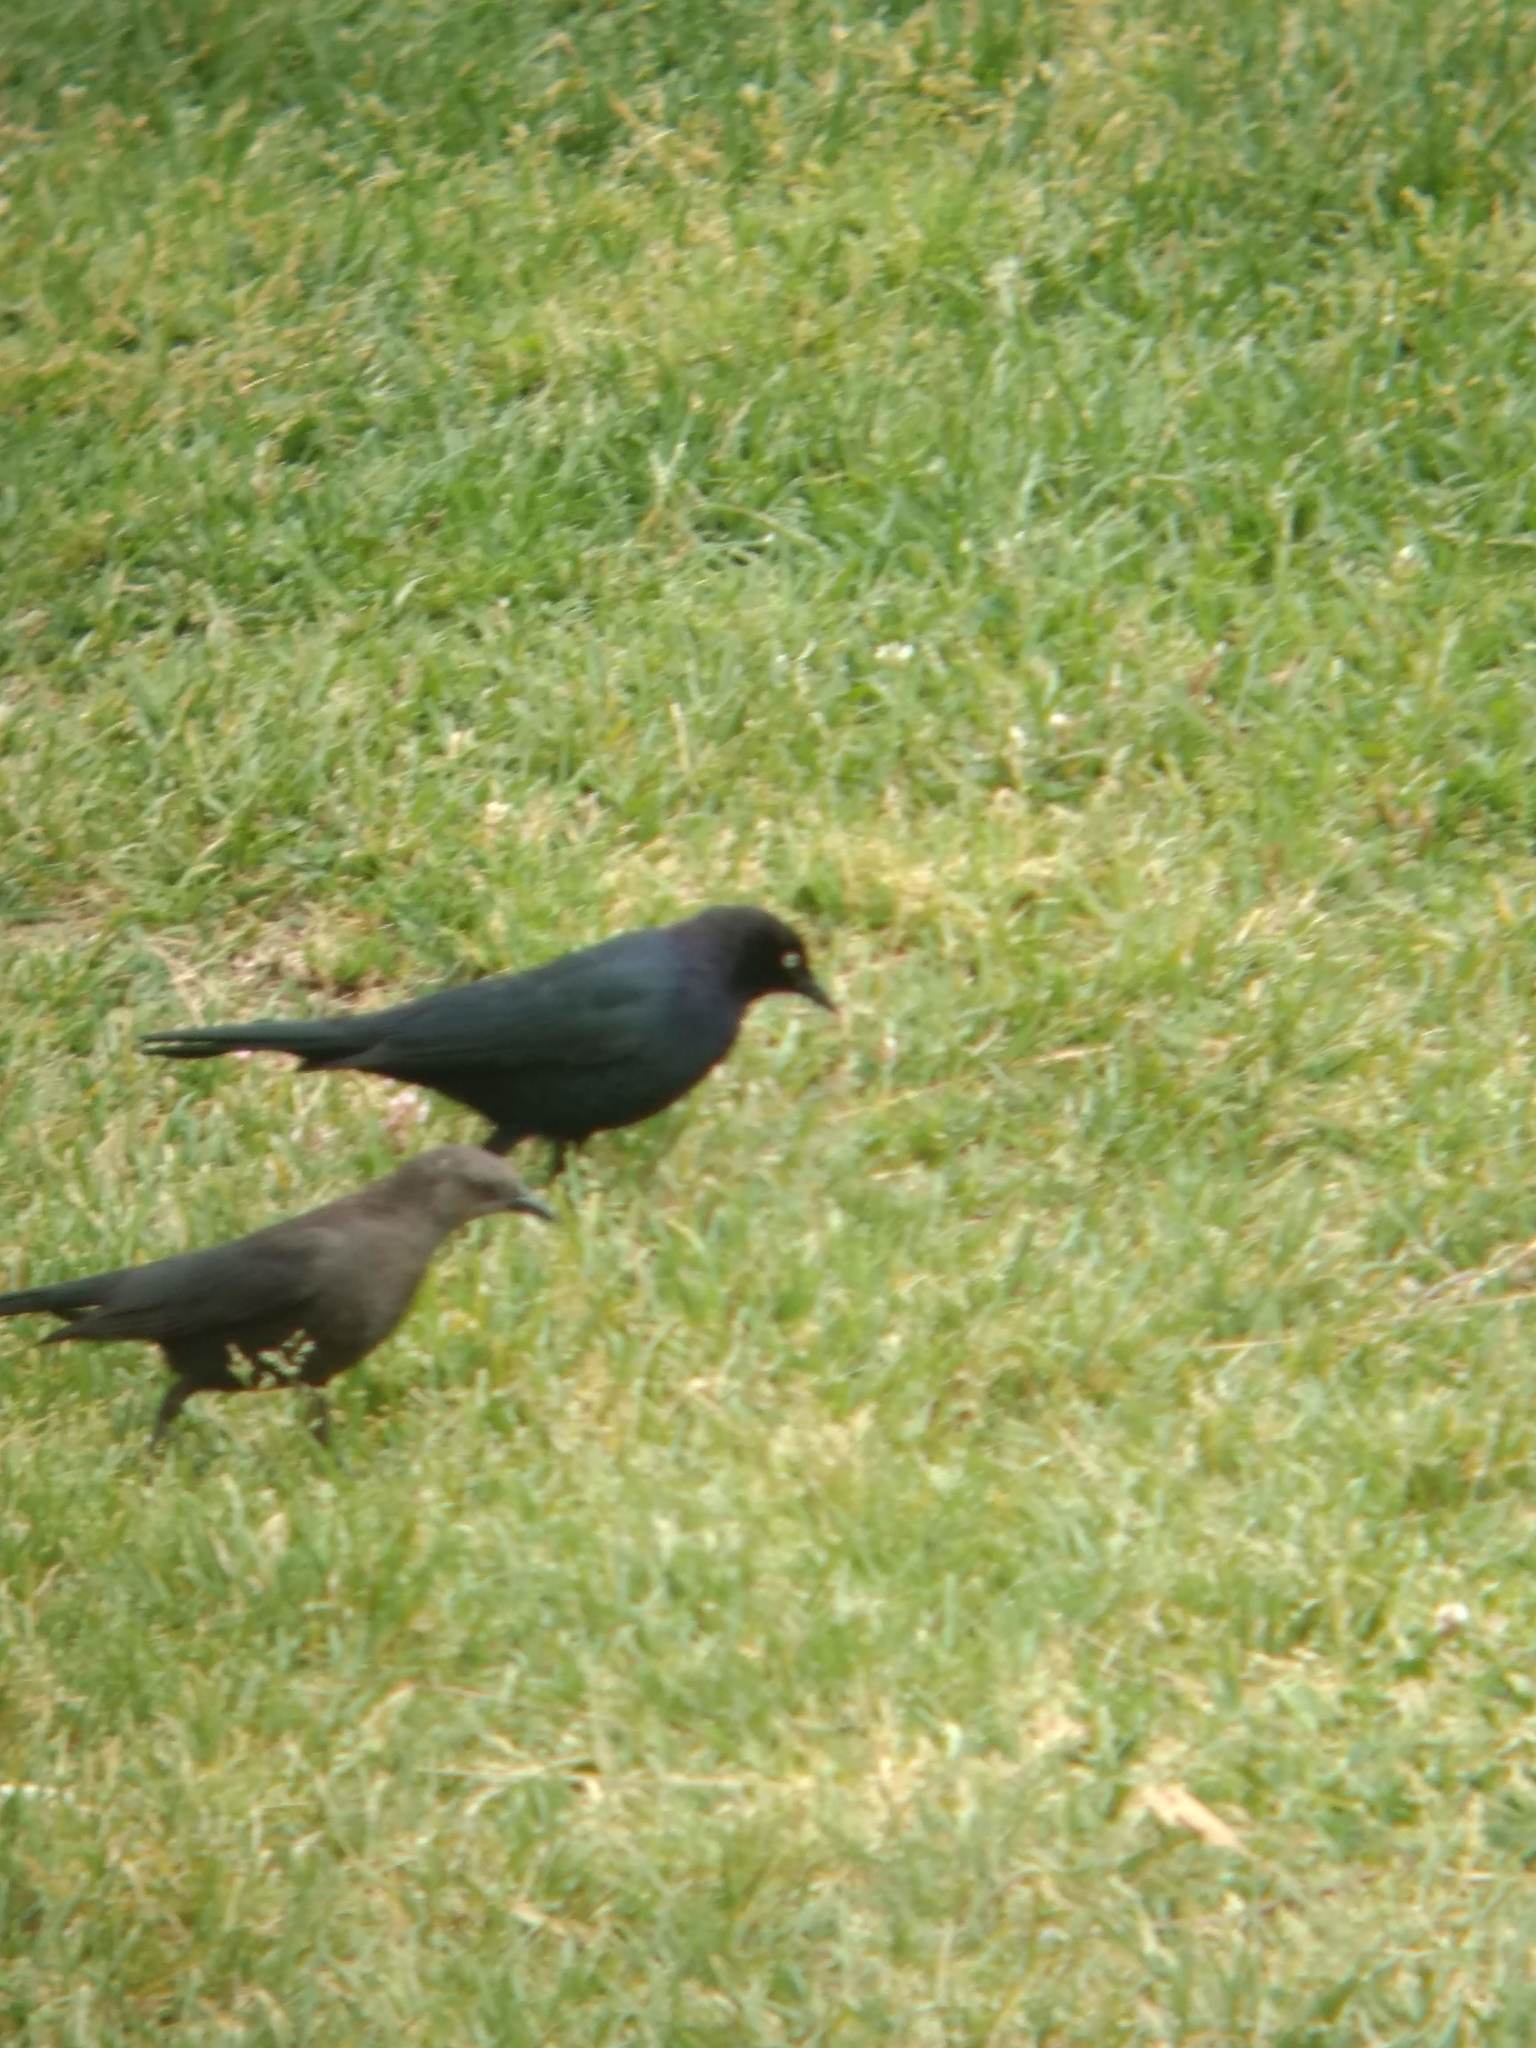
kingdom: Animalia
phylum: Chordata
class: Aves
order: Passeriformes
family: Icteridae
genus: Euphagus
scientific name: Euphagus cyanocephalus
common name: Brewer's blackbird
